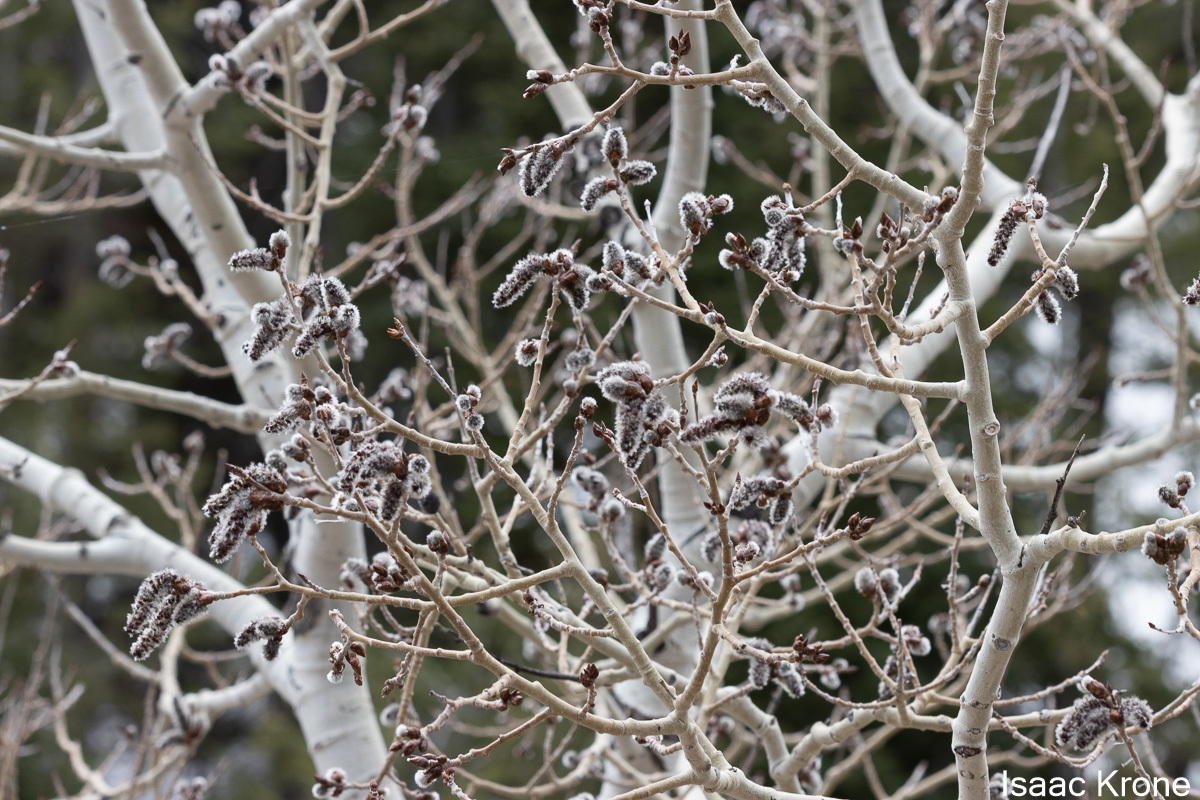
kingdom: Plantae
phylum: Tracheophyta
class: Magnoliopsida
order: Malpighiales
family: Salicaceae
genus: Populus
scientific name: Populus tremuloides
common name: Quaking aspen
